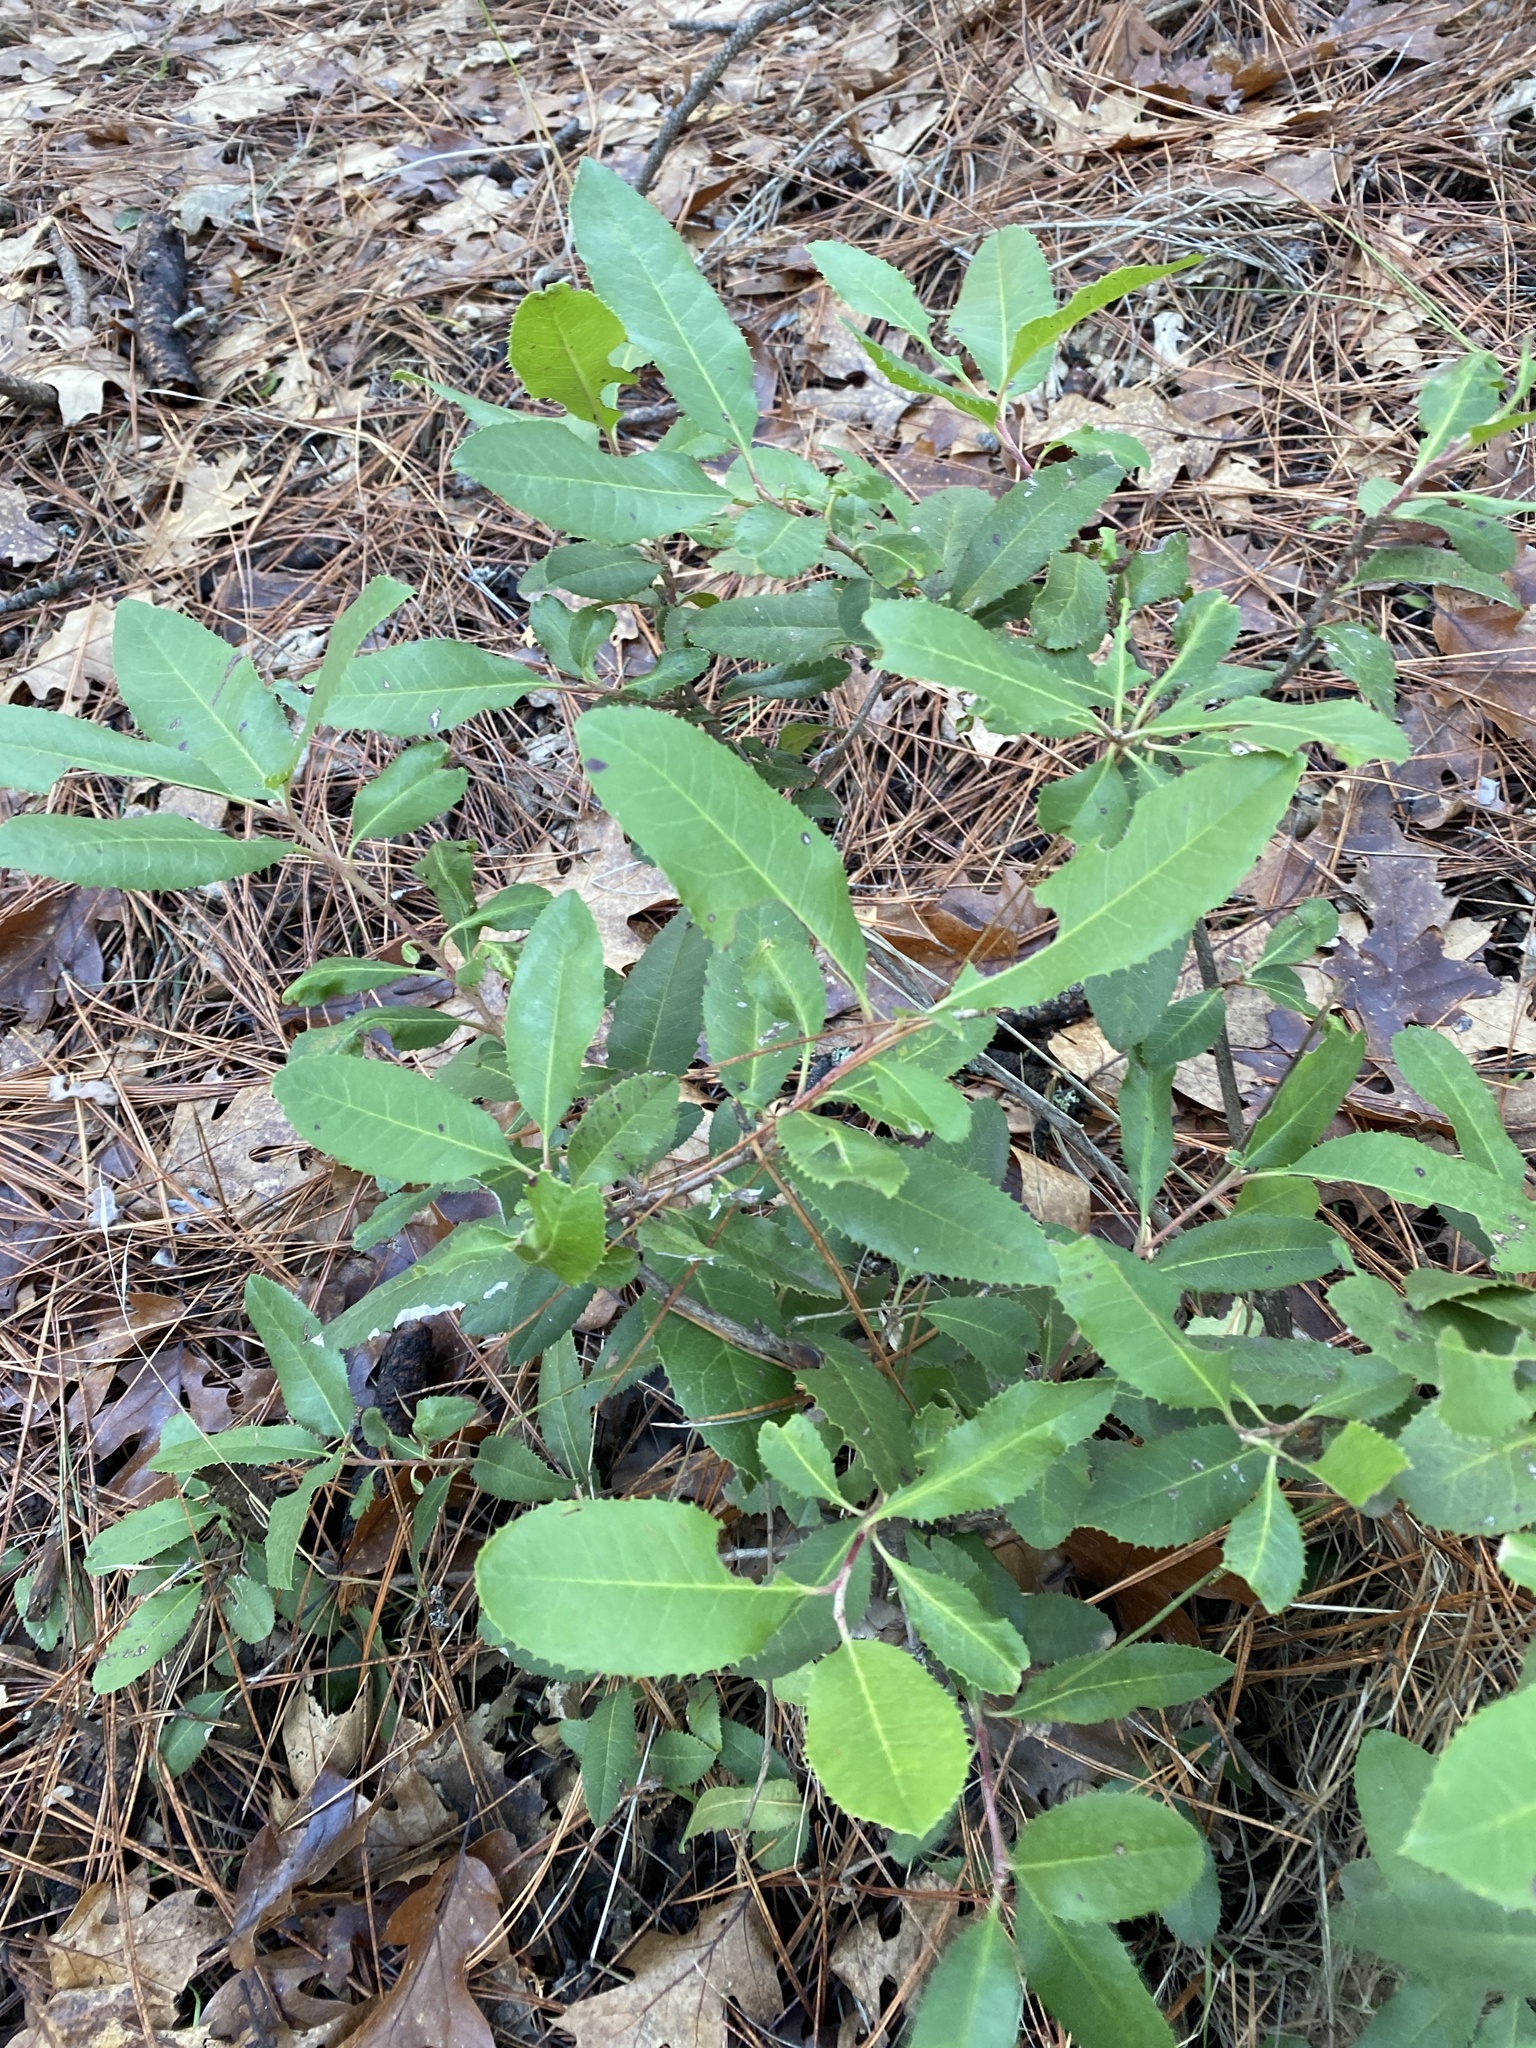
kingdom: Plantae
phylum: Tracheophyta
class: Magnoliopsida
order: Rosales
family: Rosaceae
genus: Heteromeles
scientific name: Heteromeles arbutifolia
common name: California-holly
